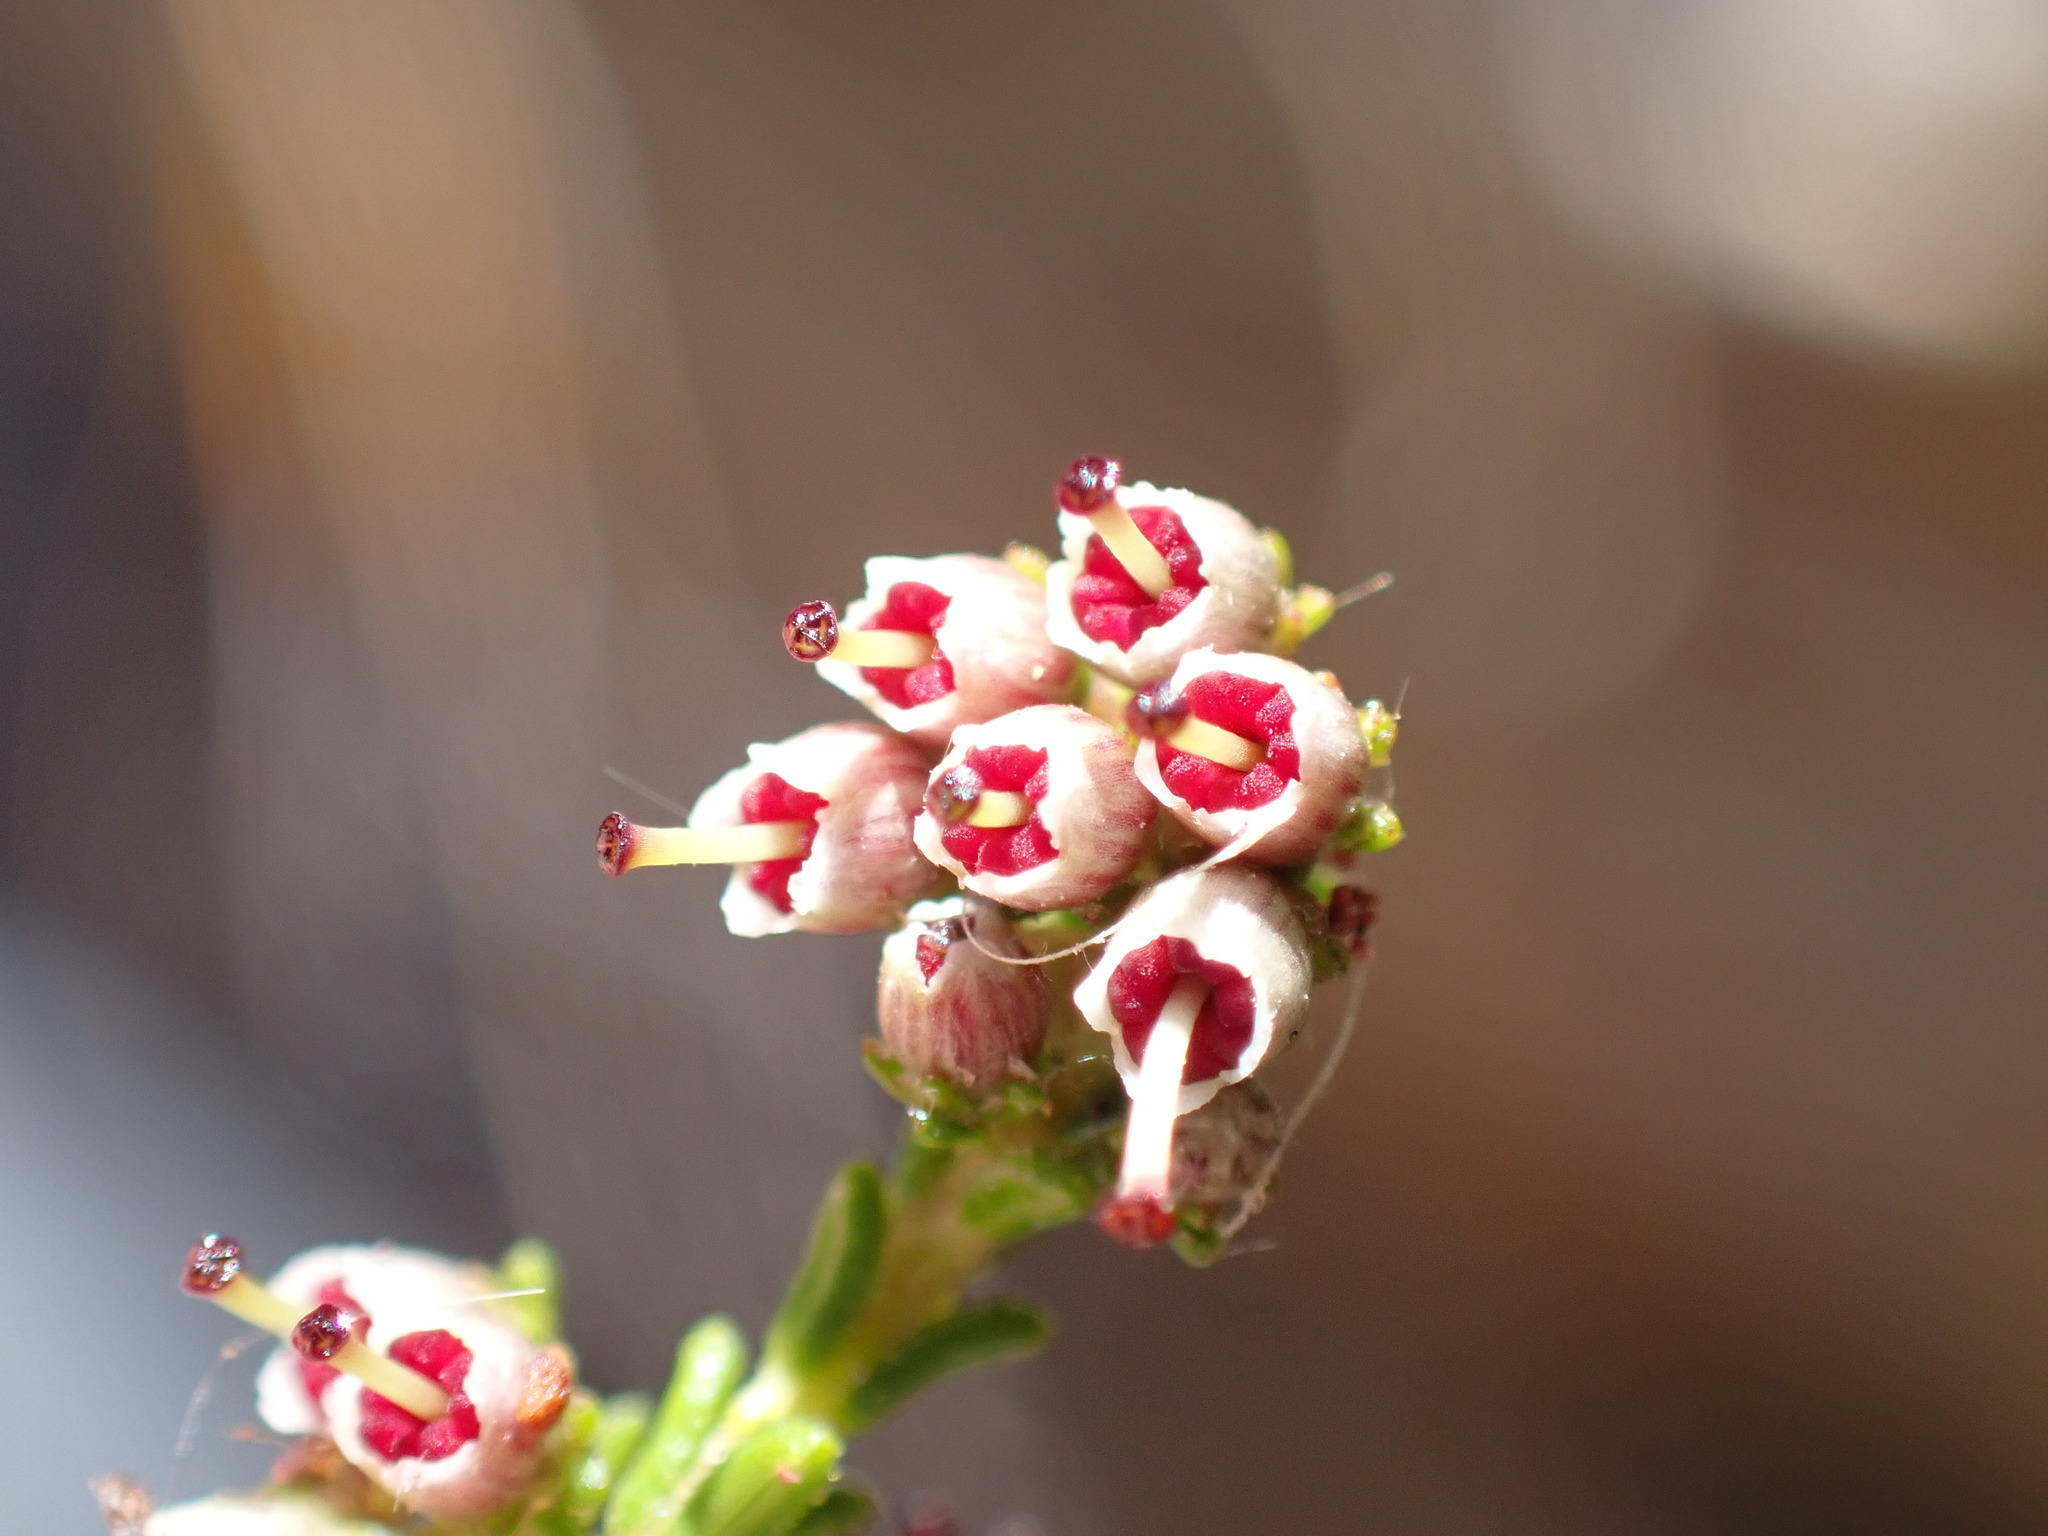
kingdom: Plantae
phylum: Tracheophyta
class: Magnoliopsida
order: Ericales
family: Ericaceae
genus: Erica
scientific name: Erica kougabergensis
